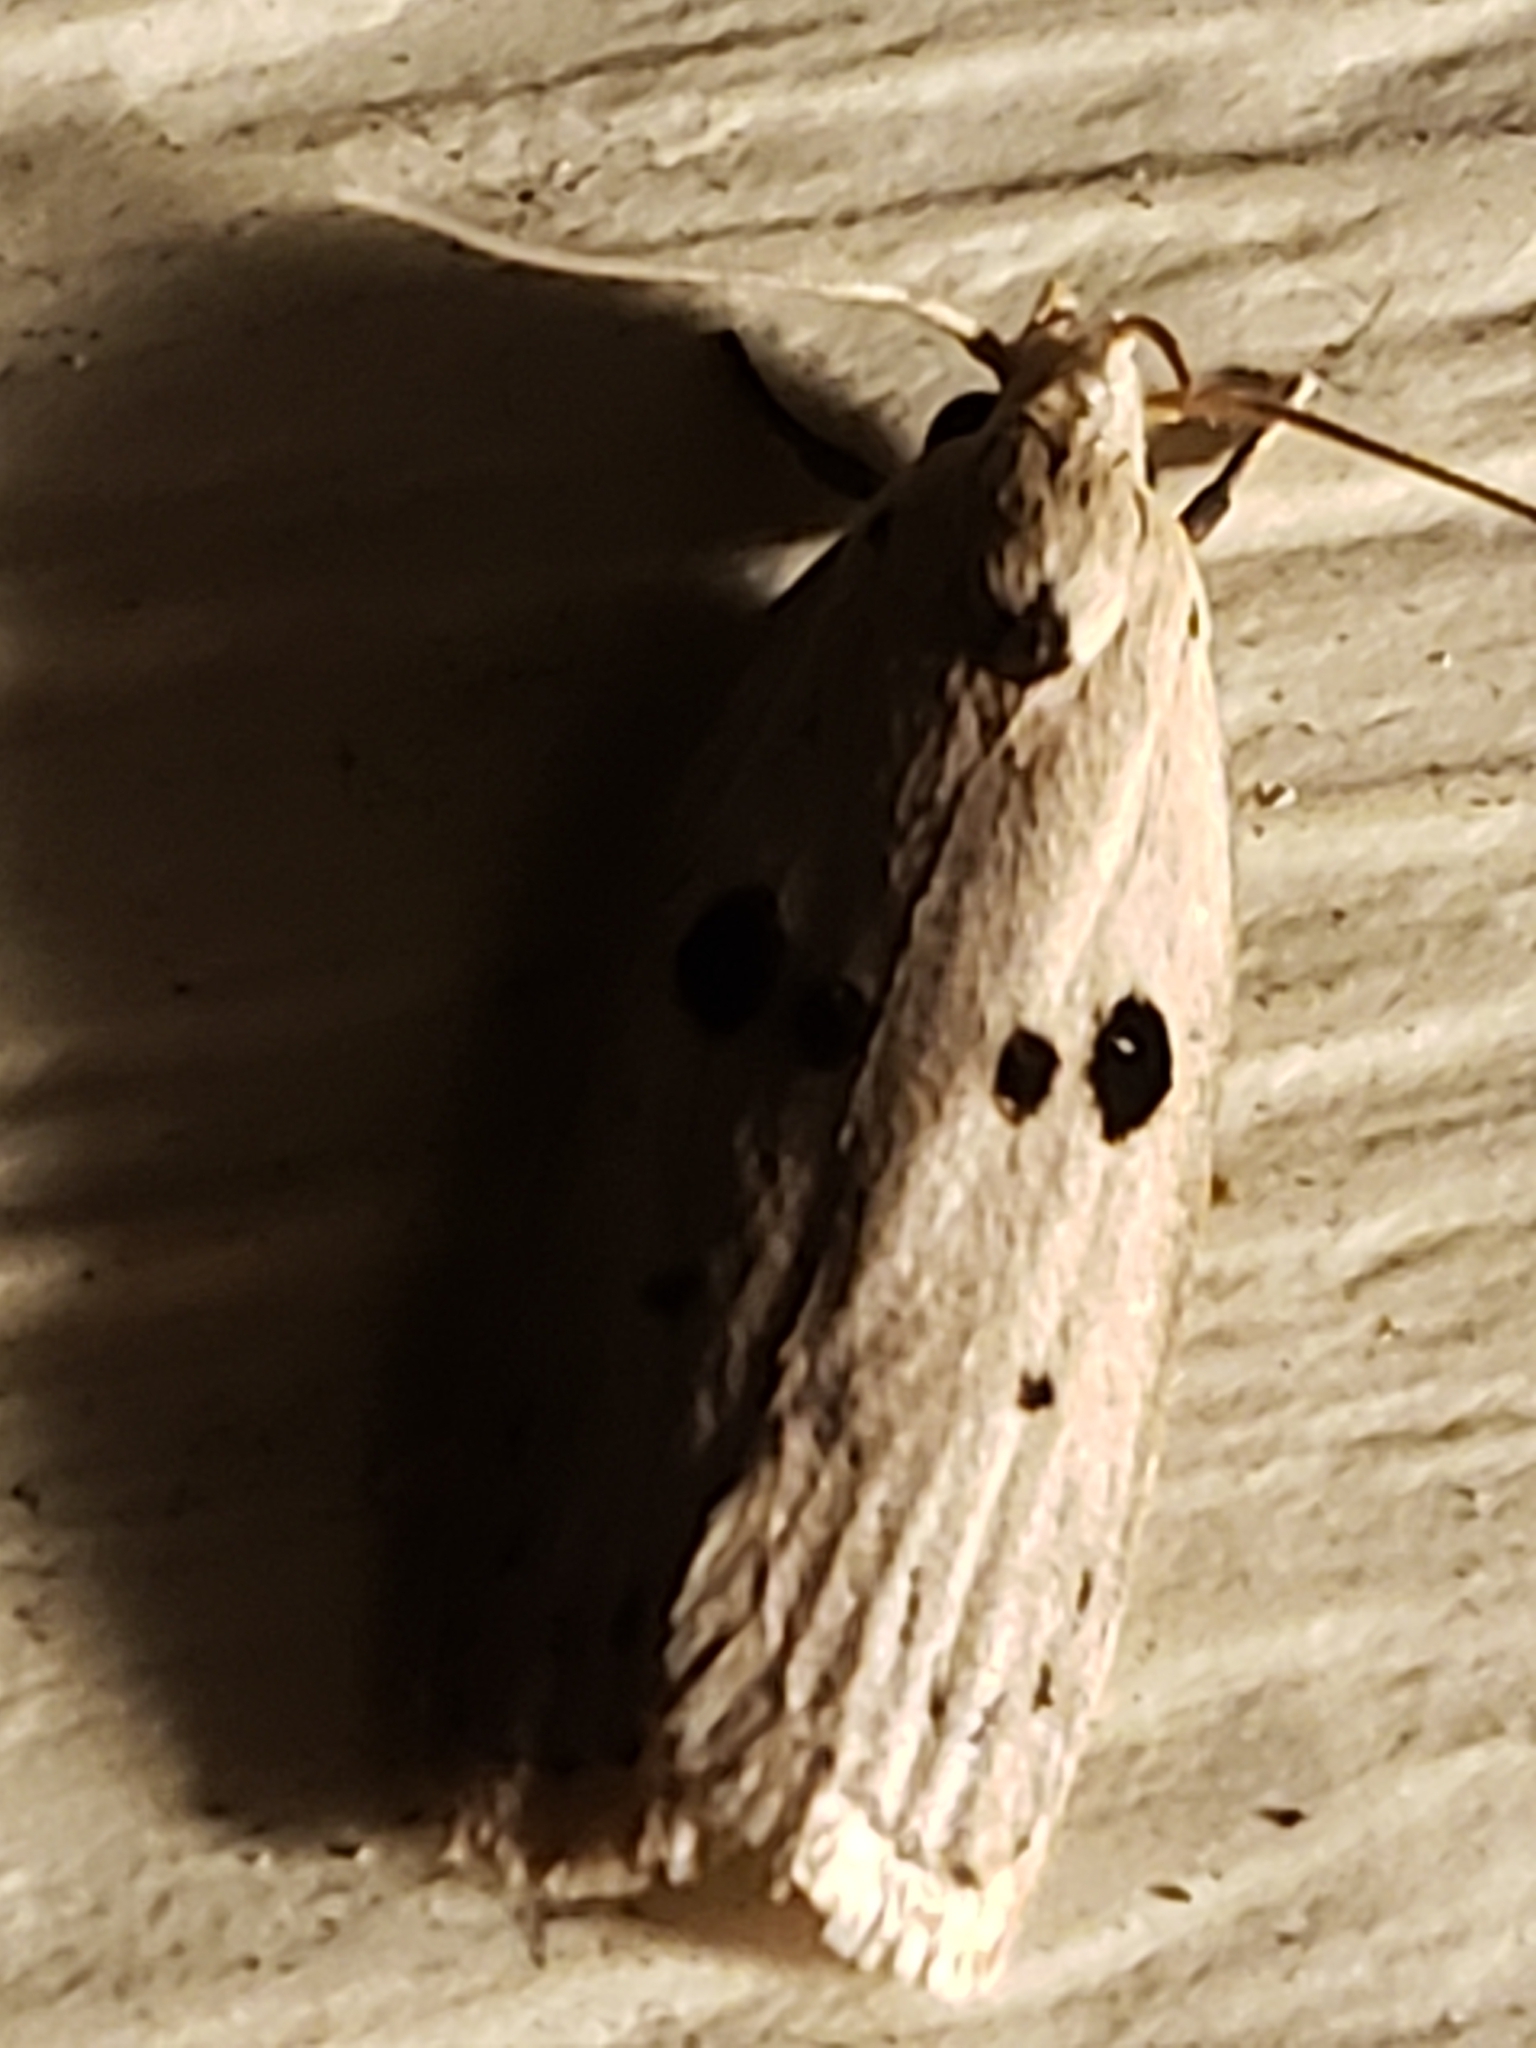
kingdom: Animalia
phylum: Arthropoda
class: Insecta
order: Lepidoptera
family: Peleopodidae
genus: Scythropiodes
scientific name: Scythropiodes issikii
